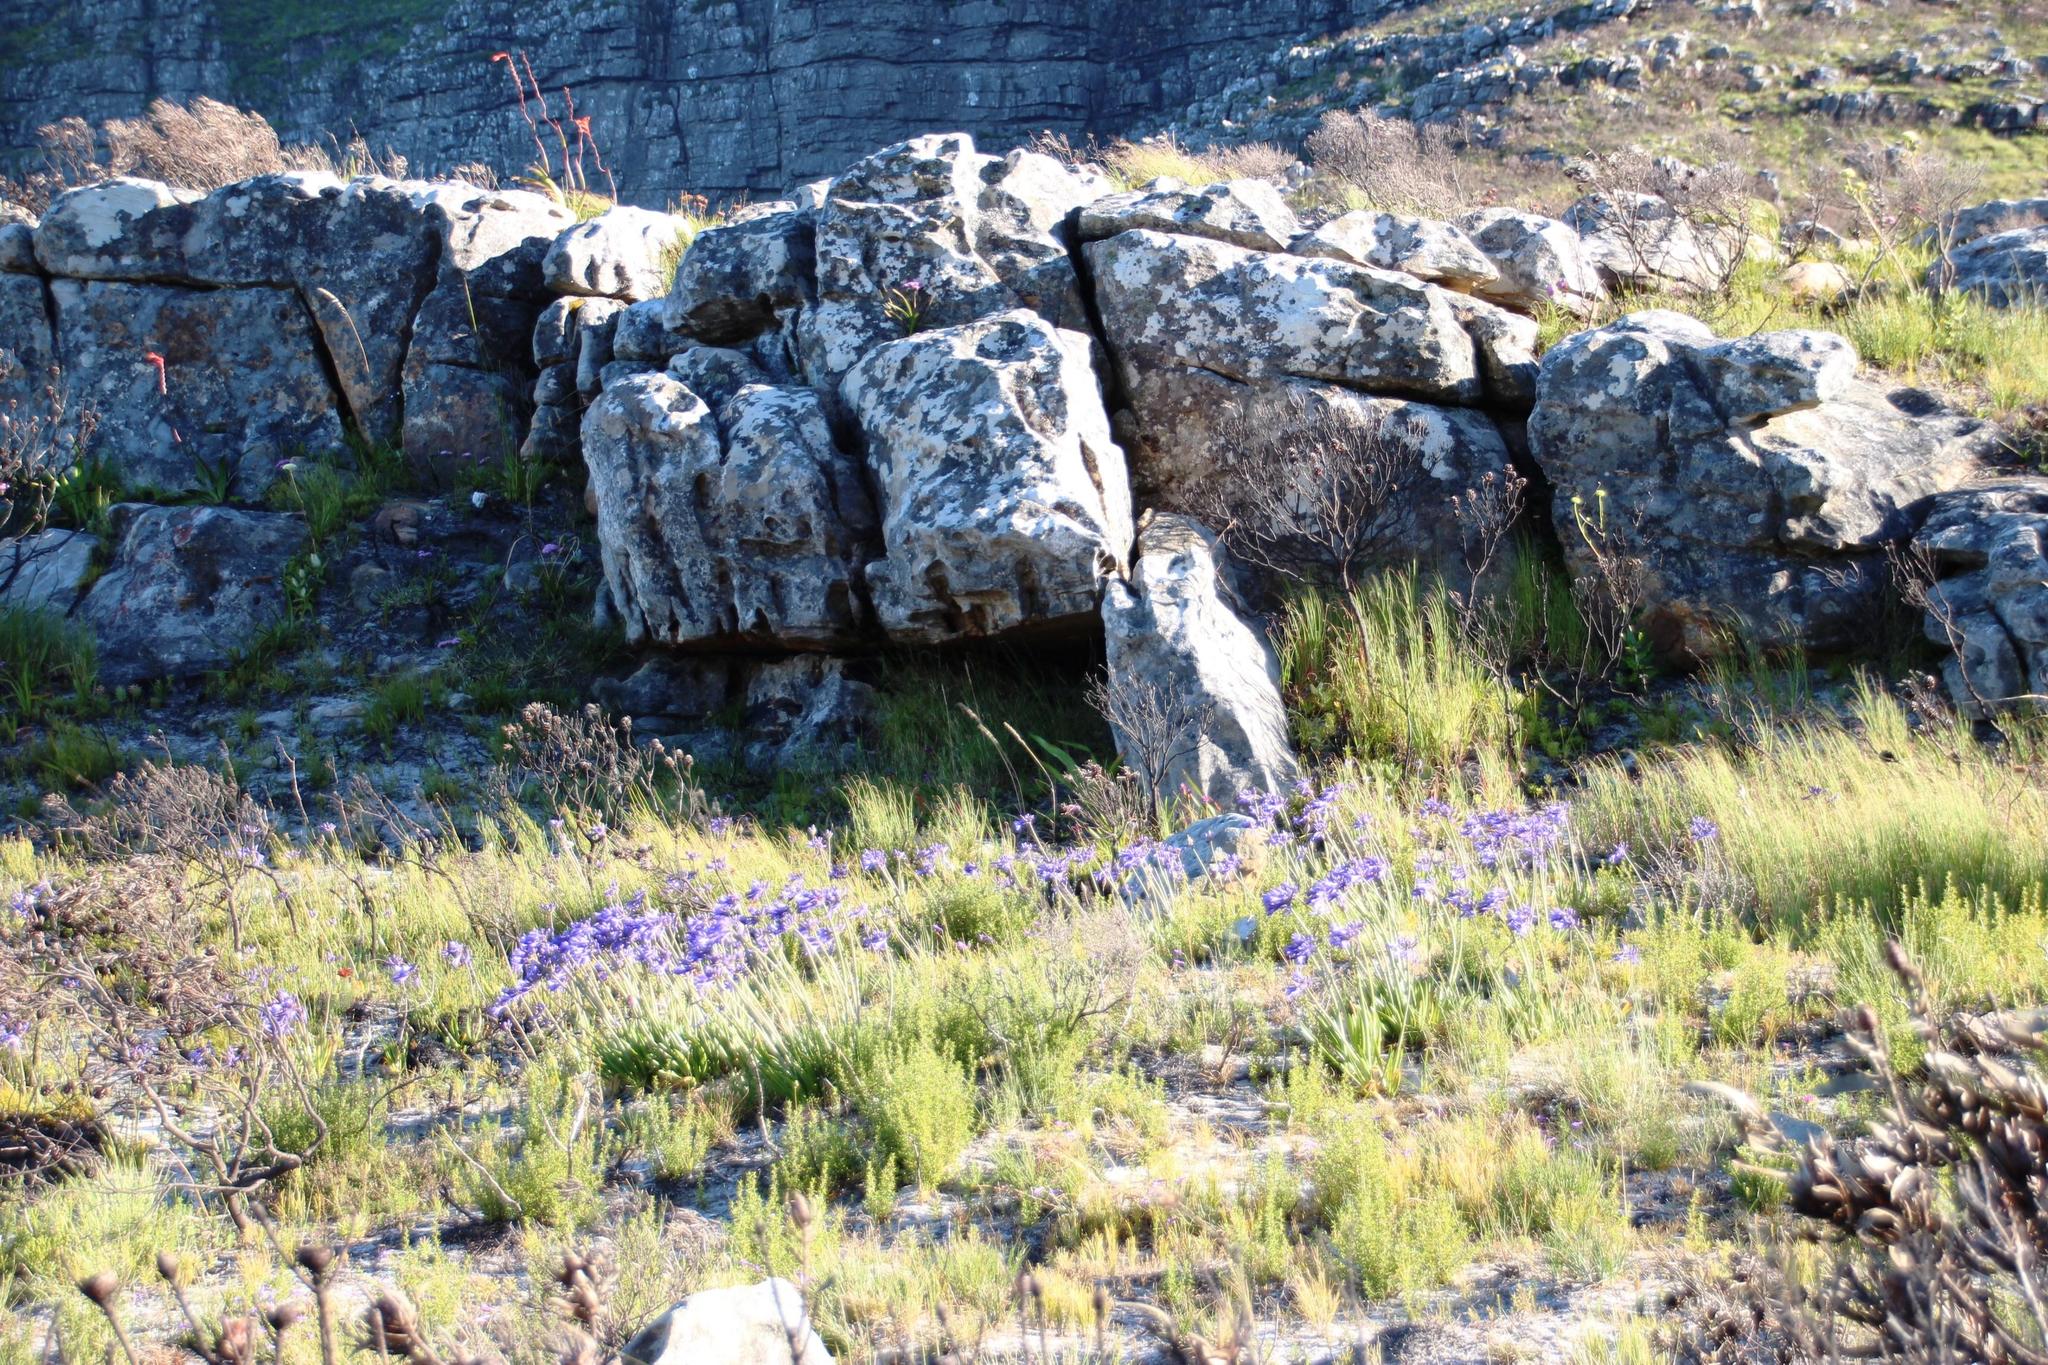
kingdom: Plantae
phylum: Tracheophyta
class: Liliopsida
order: Asparagales
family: Amaryllidaceae
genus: Agapanthus
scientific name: Agapanthus africanus
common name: Lily-of-the-nile
